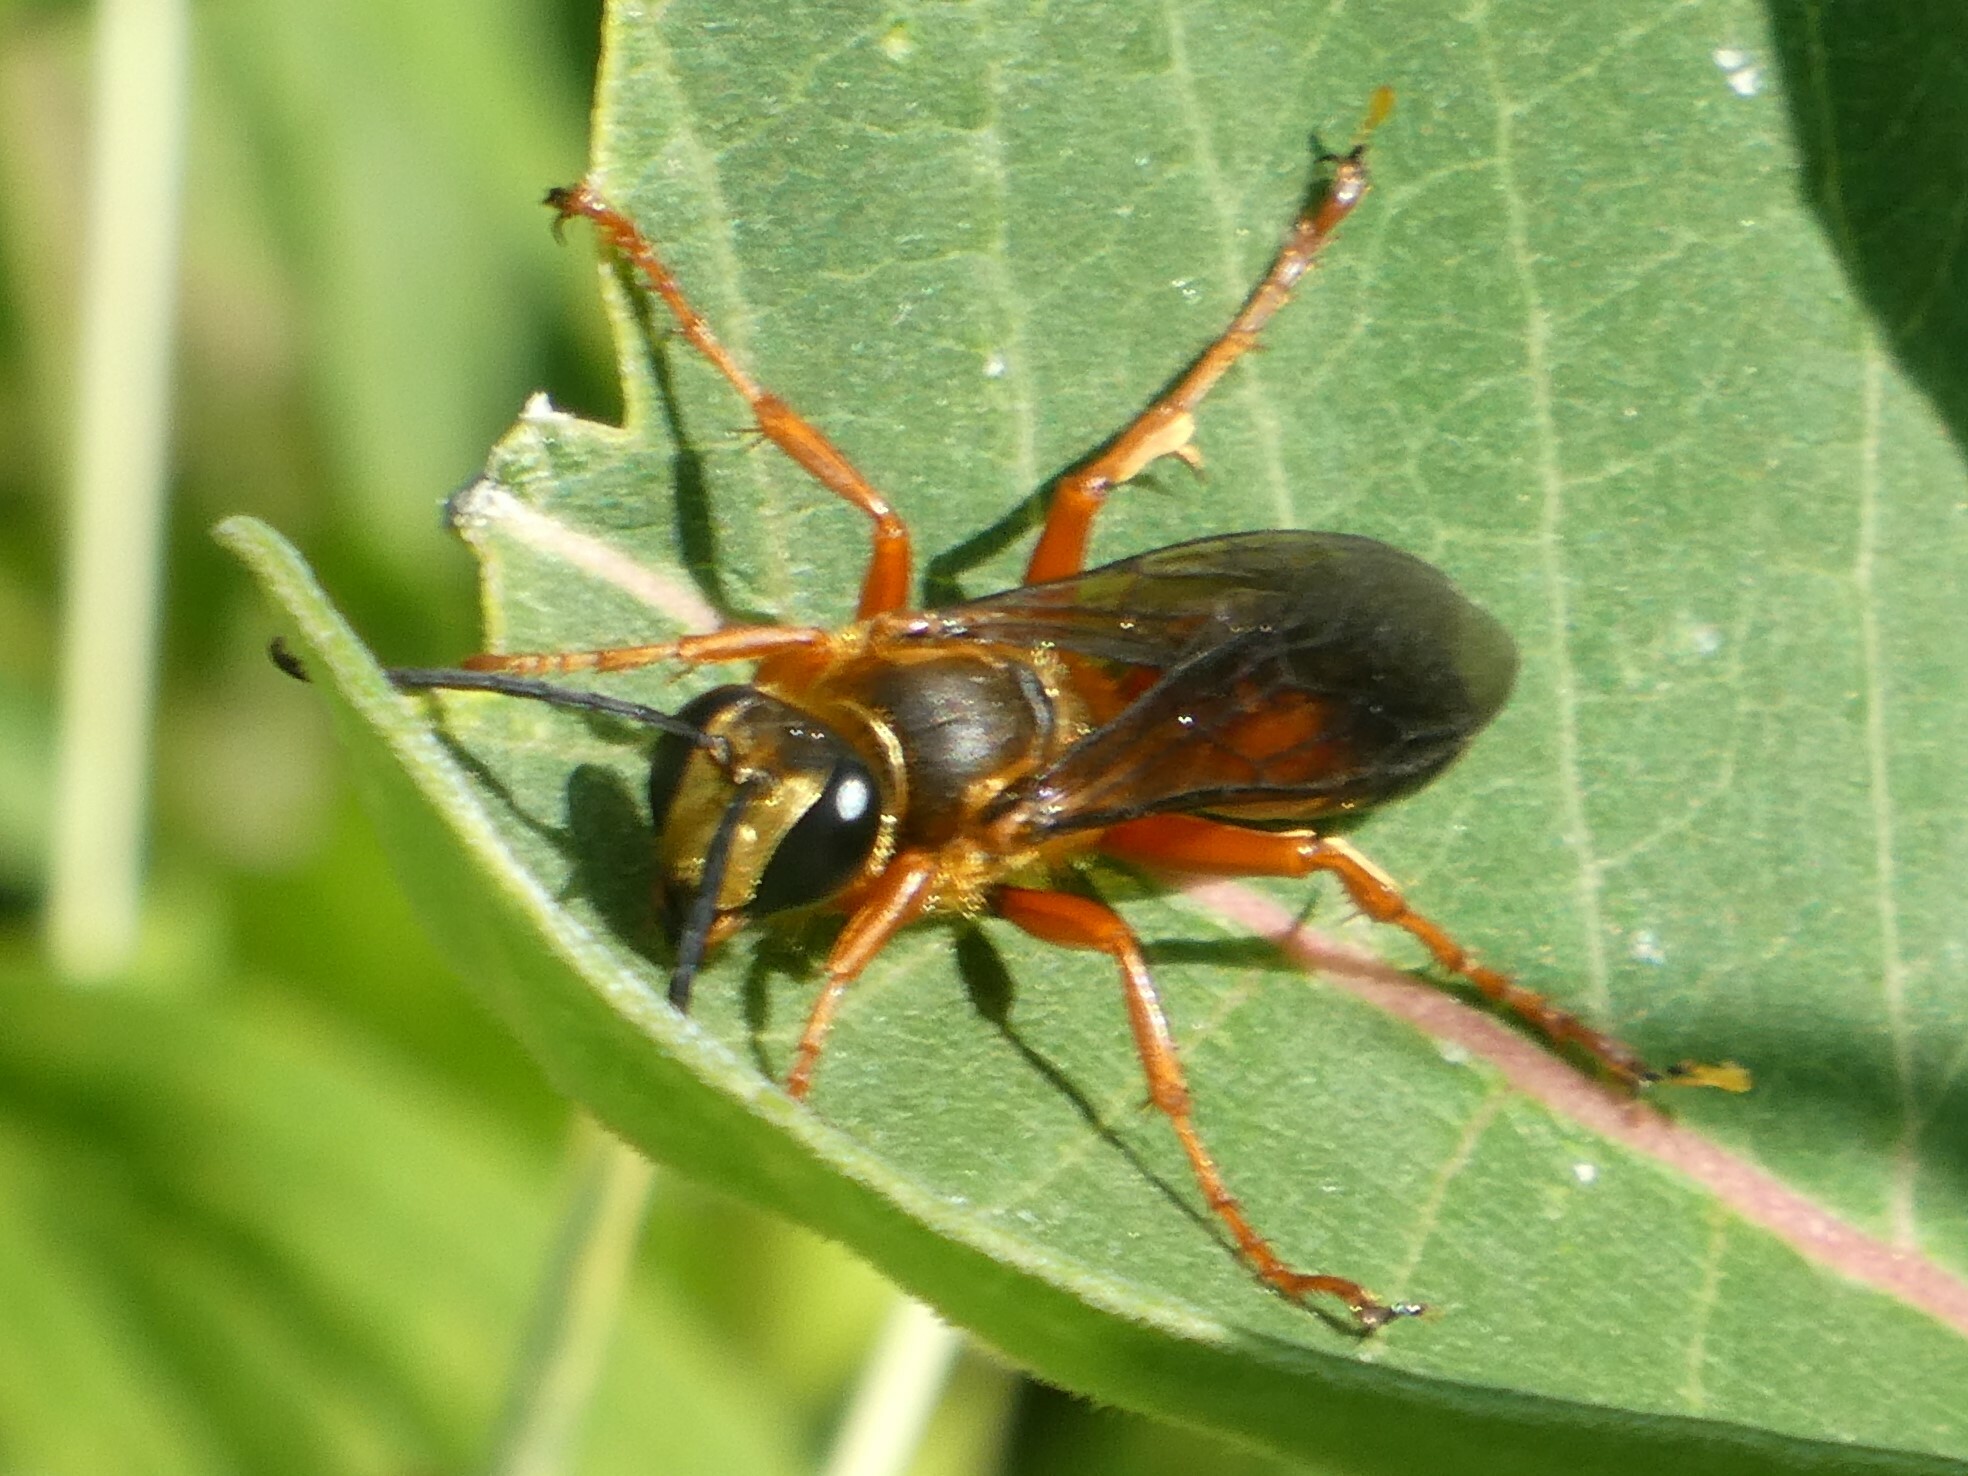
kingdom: Animalia
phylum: Arthropoda
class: Insecta
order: Hymenoptera
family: Sphecidae
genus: Sphex
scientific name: Sphex ichneumoneus
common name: Great golden digger wasp
